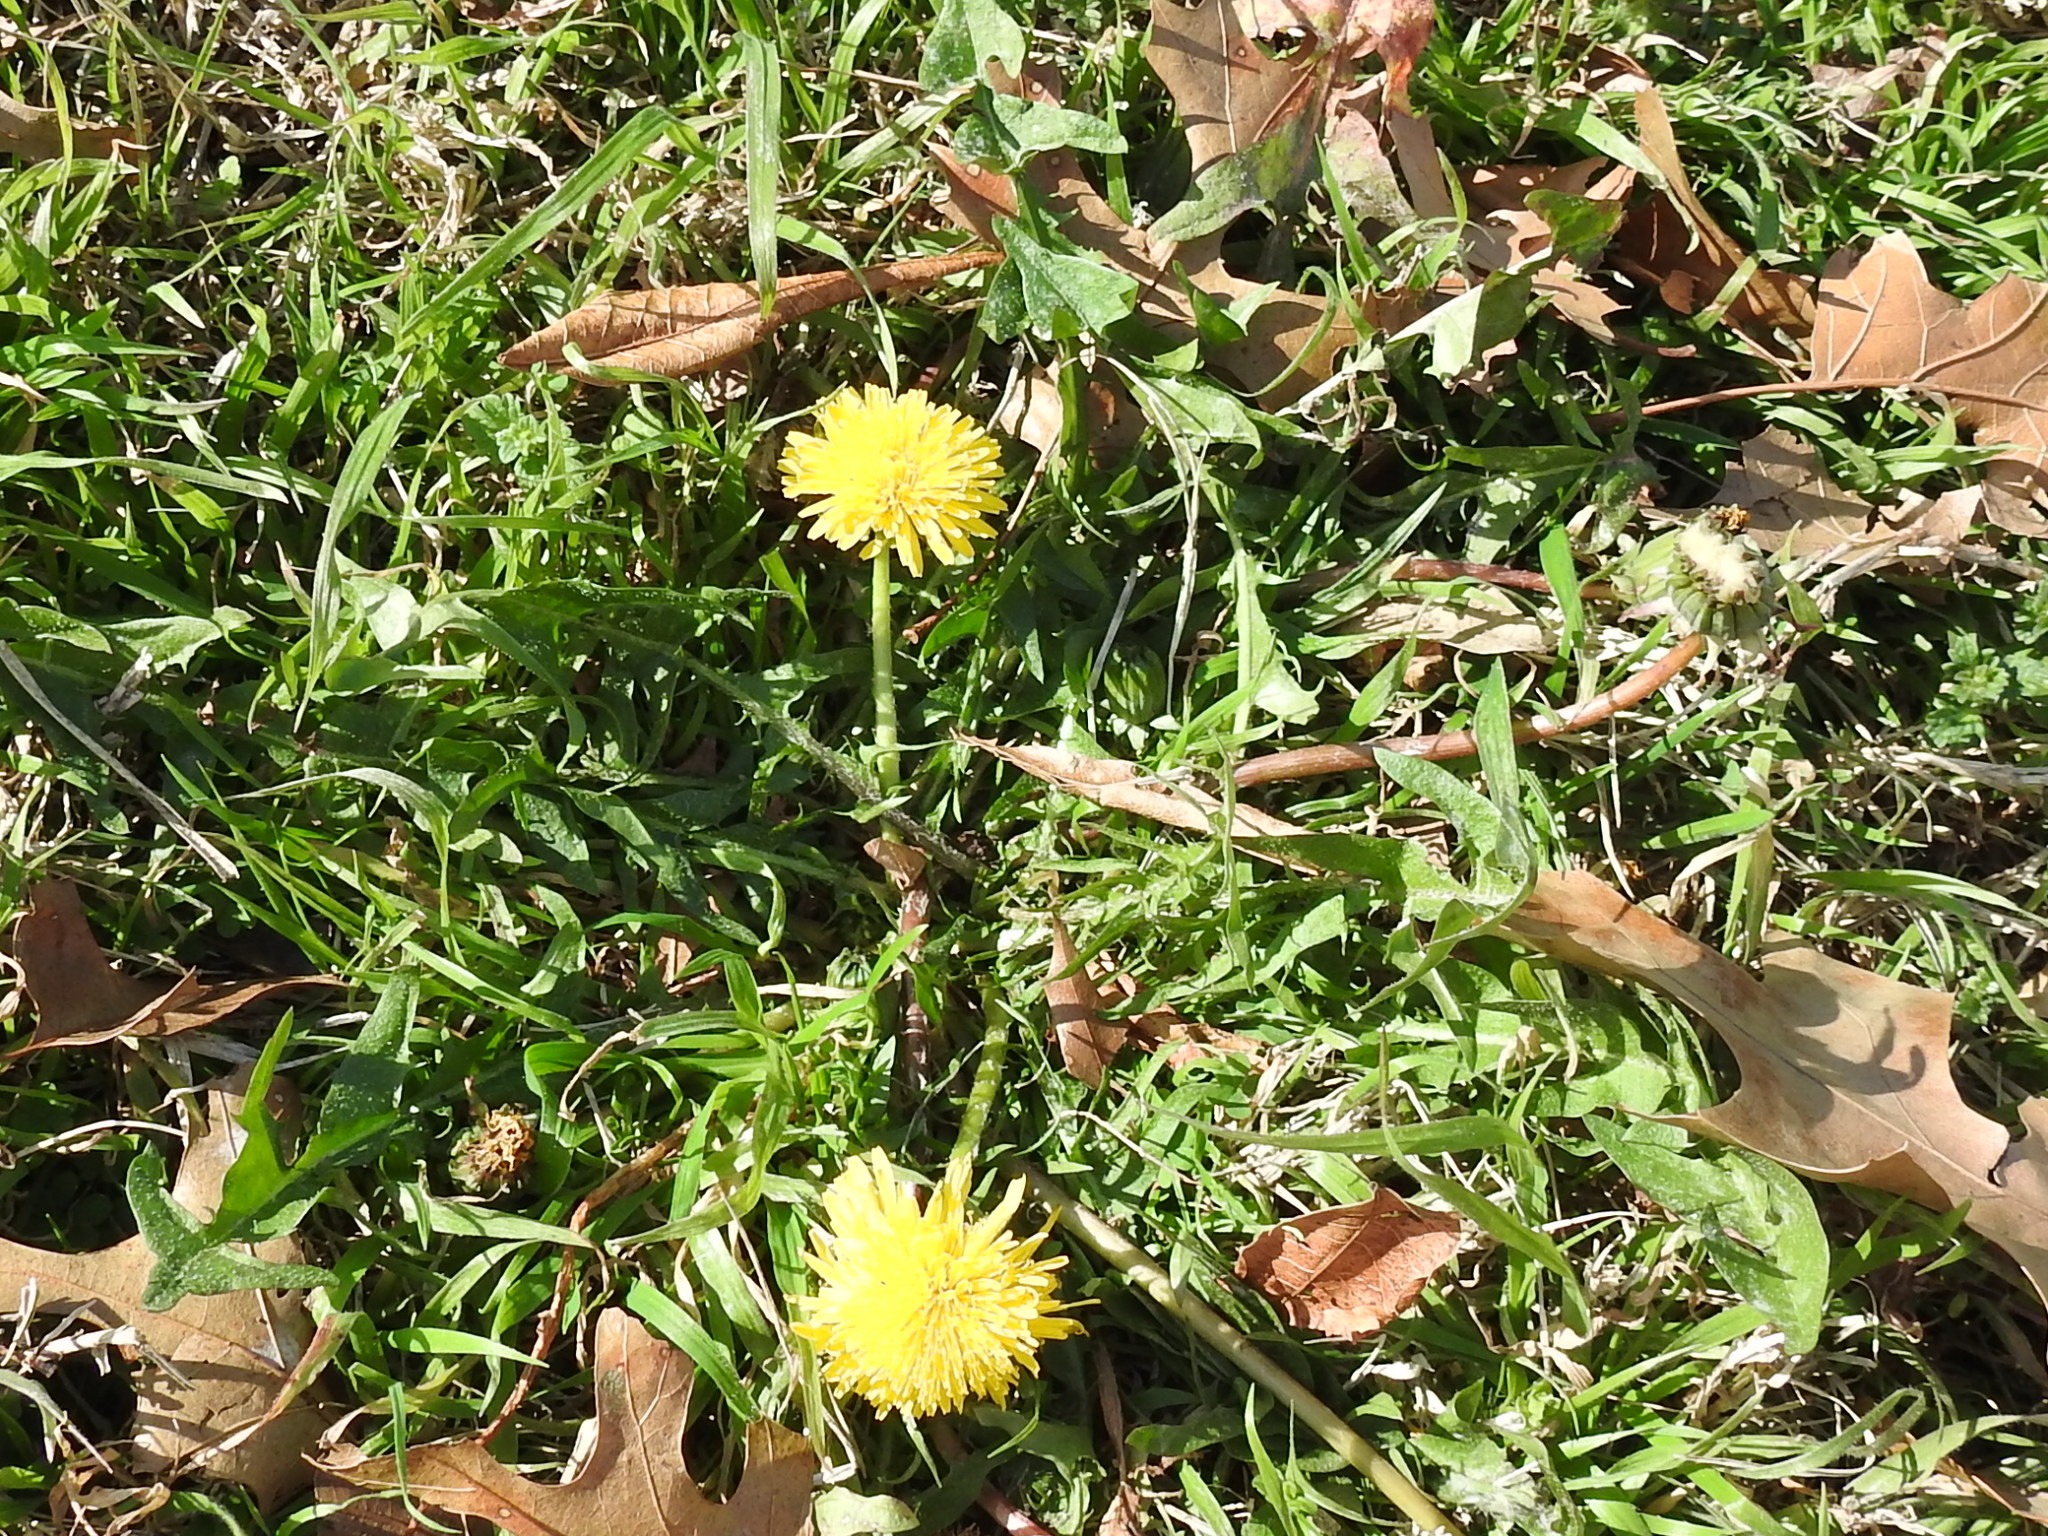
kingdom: Plantae
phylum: Tracheophyta
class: Magnoliopsida
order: Asterales
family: Asteraceae
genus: Taraxacum
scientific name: Taraxacum officinale
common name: Common dandelion
